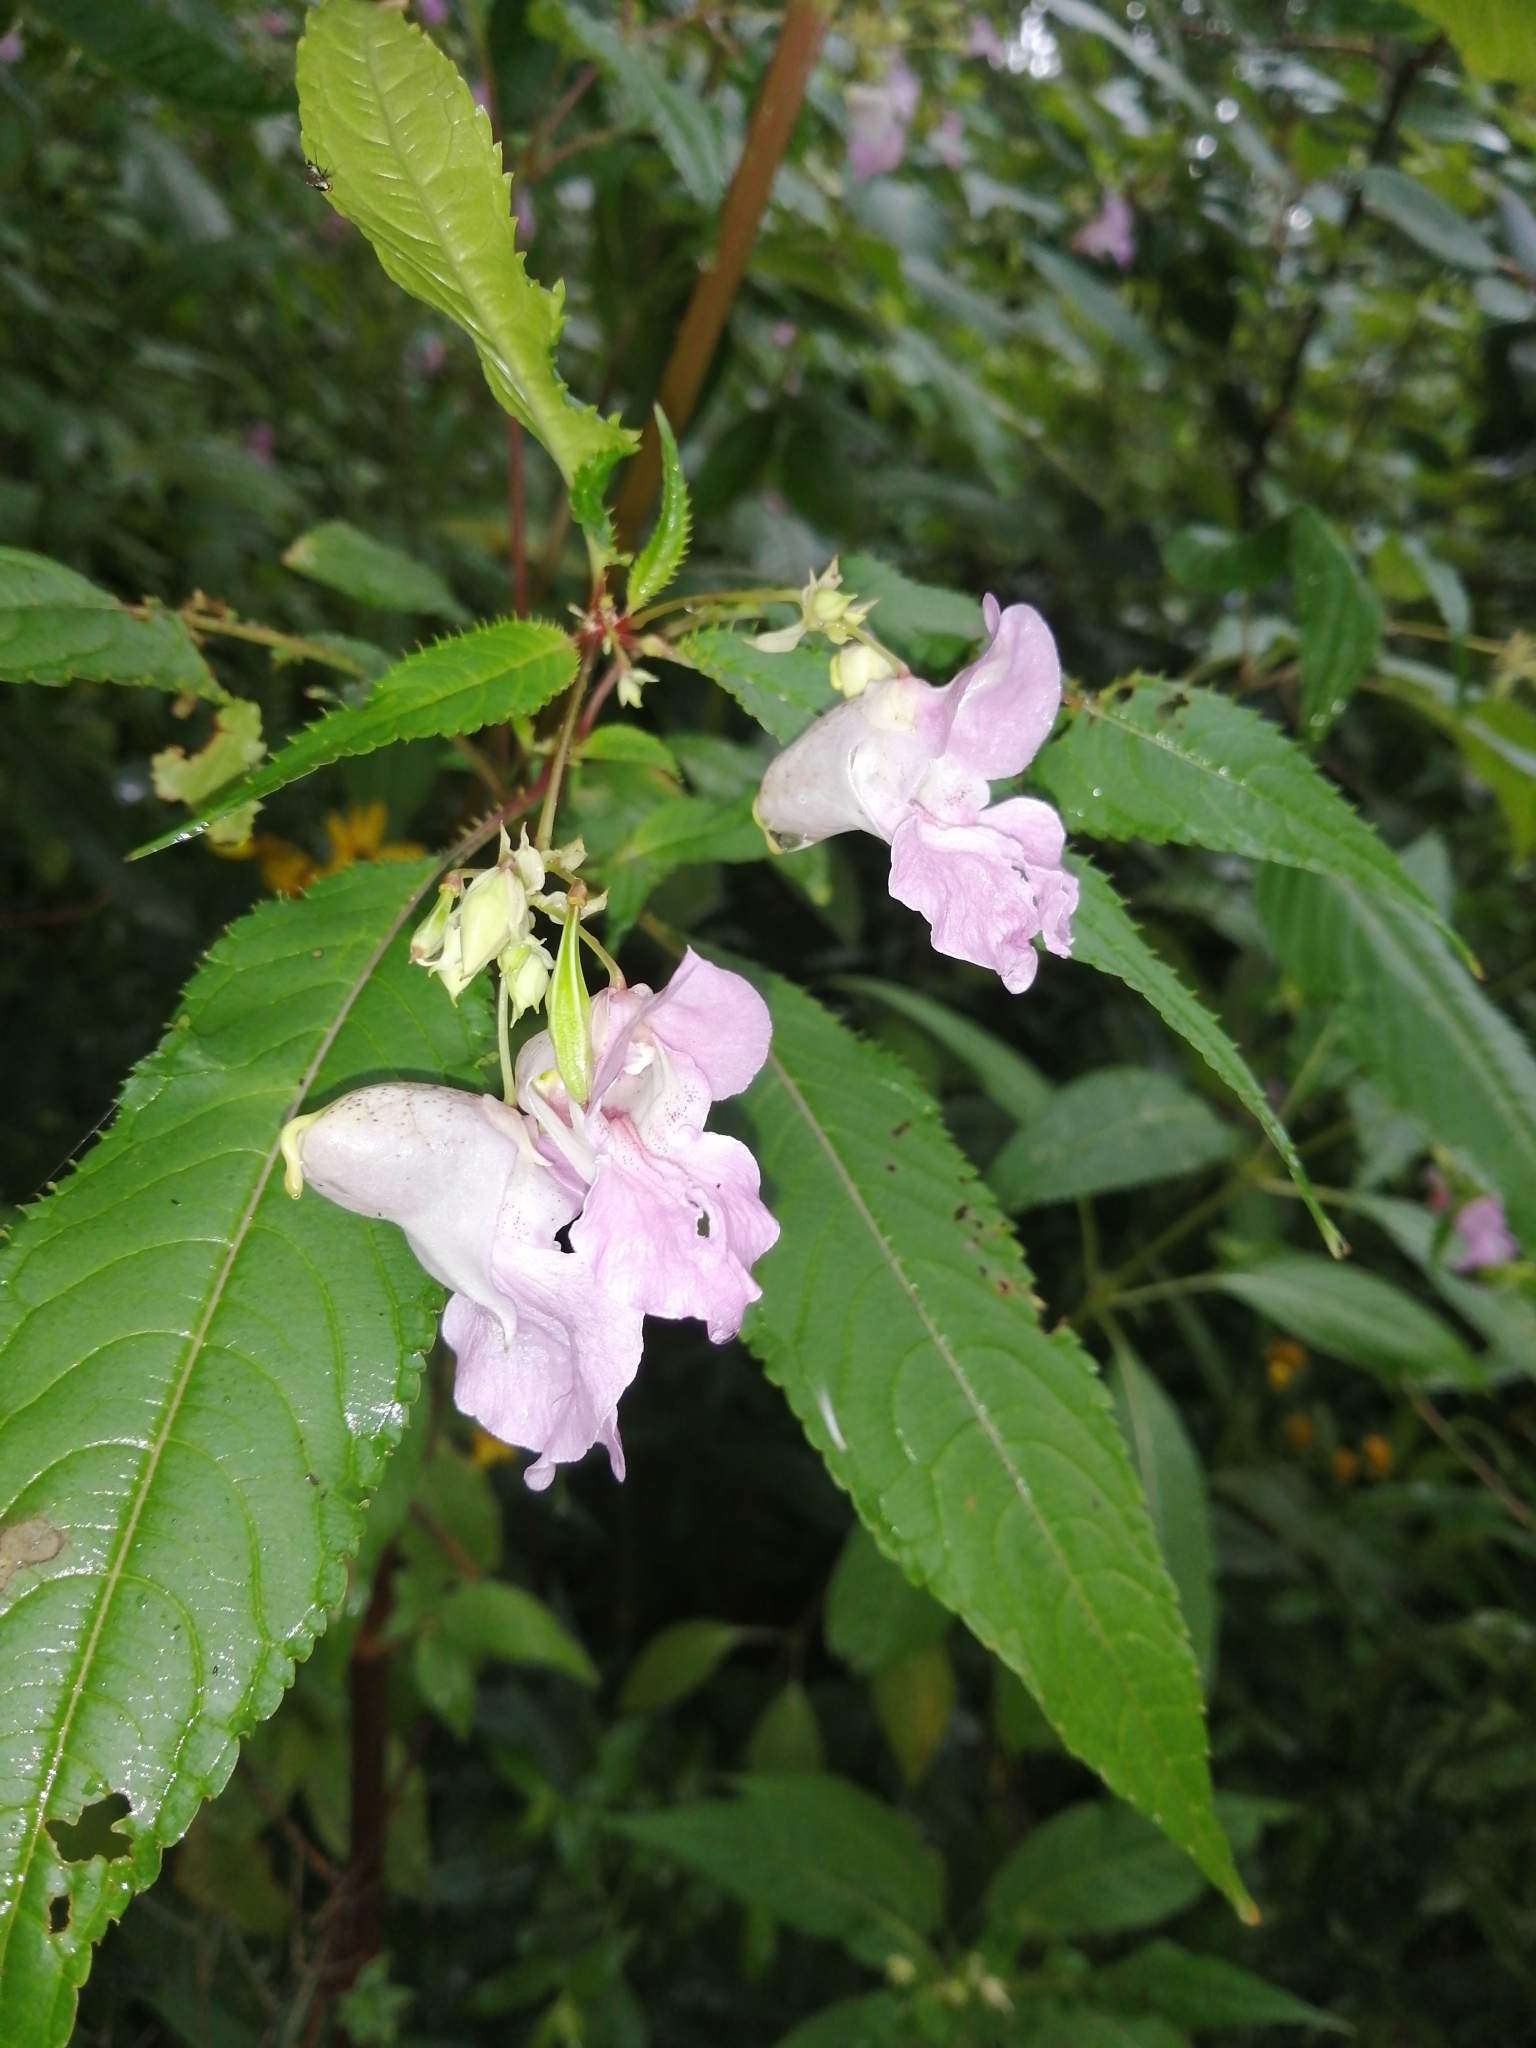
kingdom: Plantae
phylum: Tracheophyta
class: Magnoliopsida
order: Ericales
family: Balsaminaceae
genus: Impatiens
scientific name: Impatiens glandulifera
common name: Himalayan balsam
